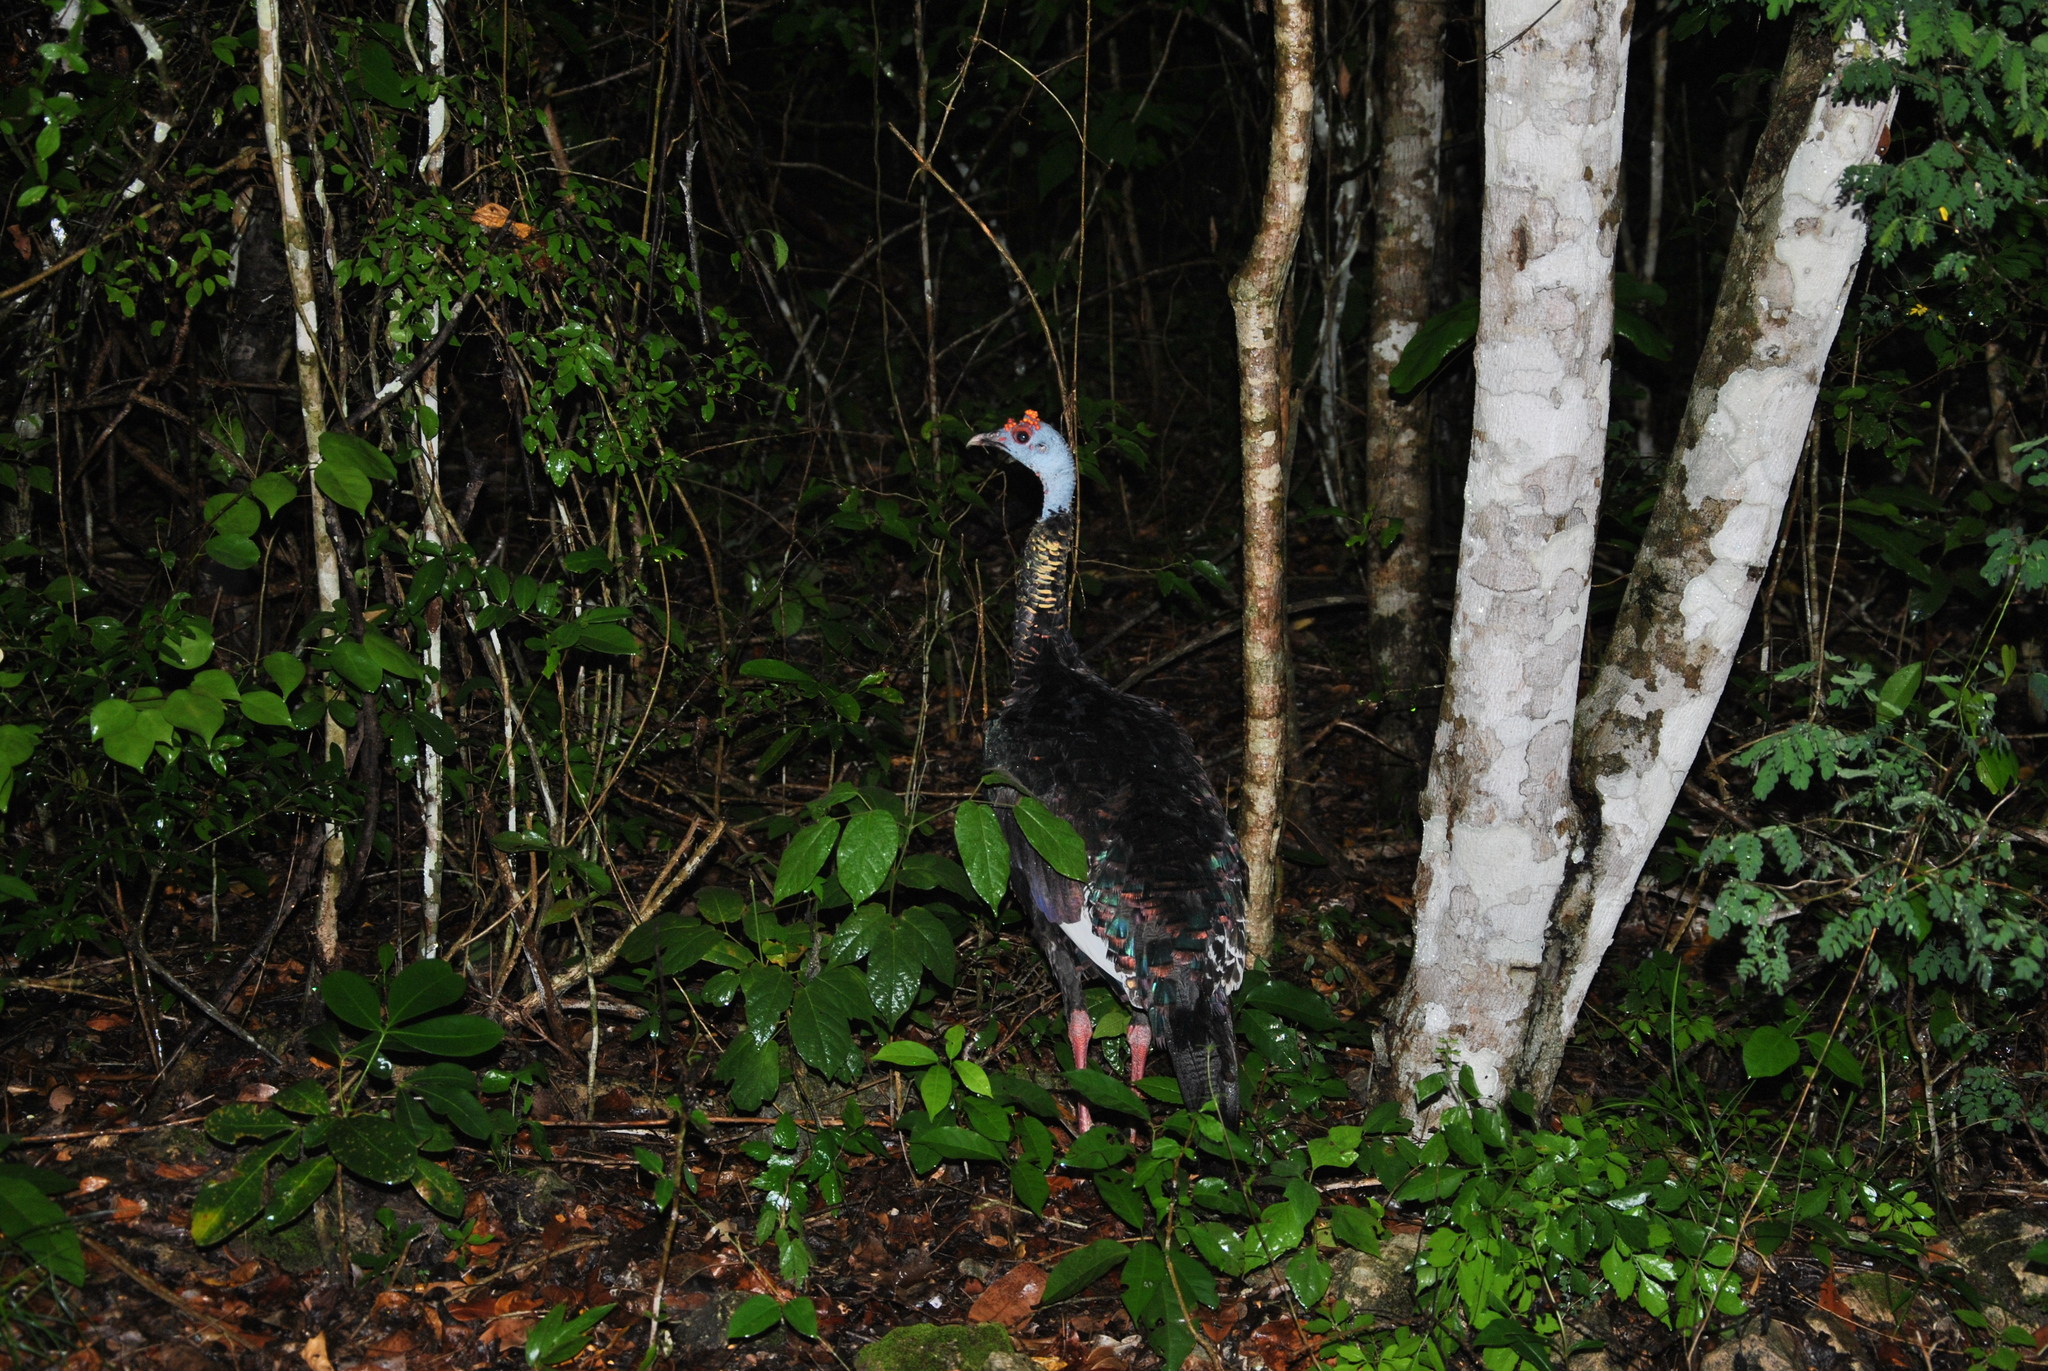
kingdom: Animalia
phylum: Chordata
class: Aves
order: Galliformes
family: Phasianidae
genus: Meleagris
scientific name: Meleagris ocellata
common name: Ocellated turkey
